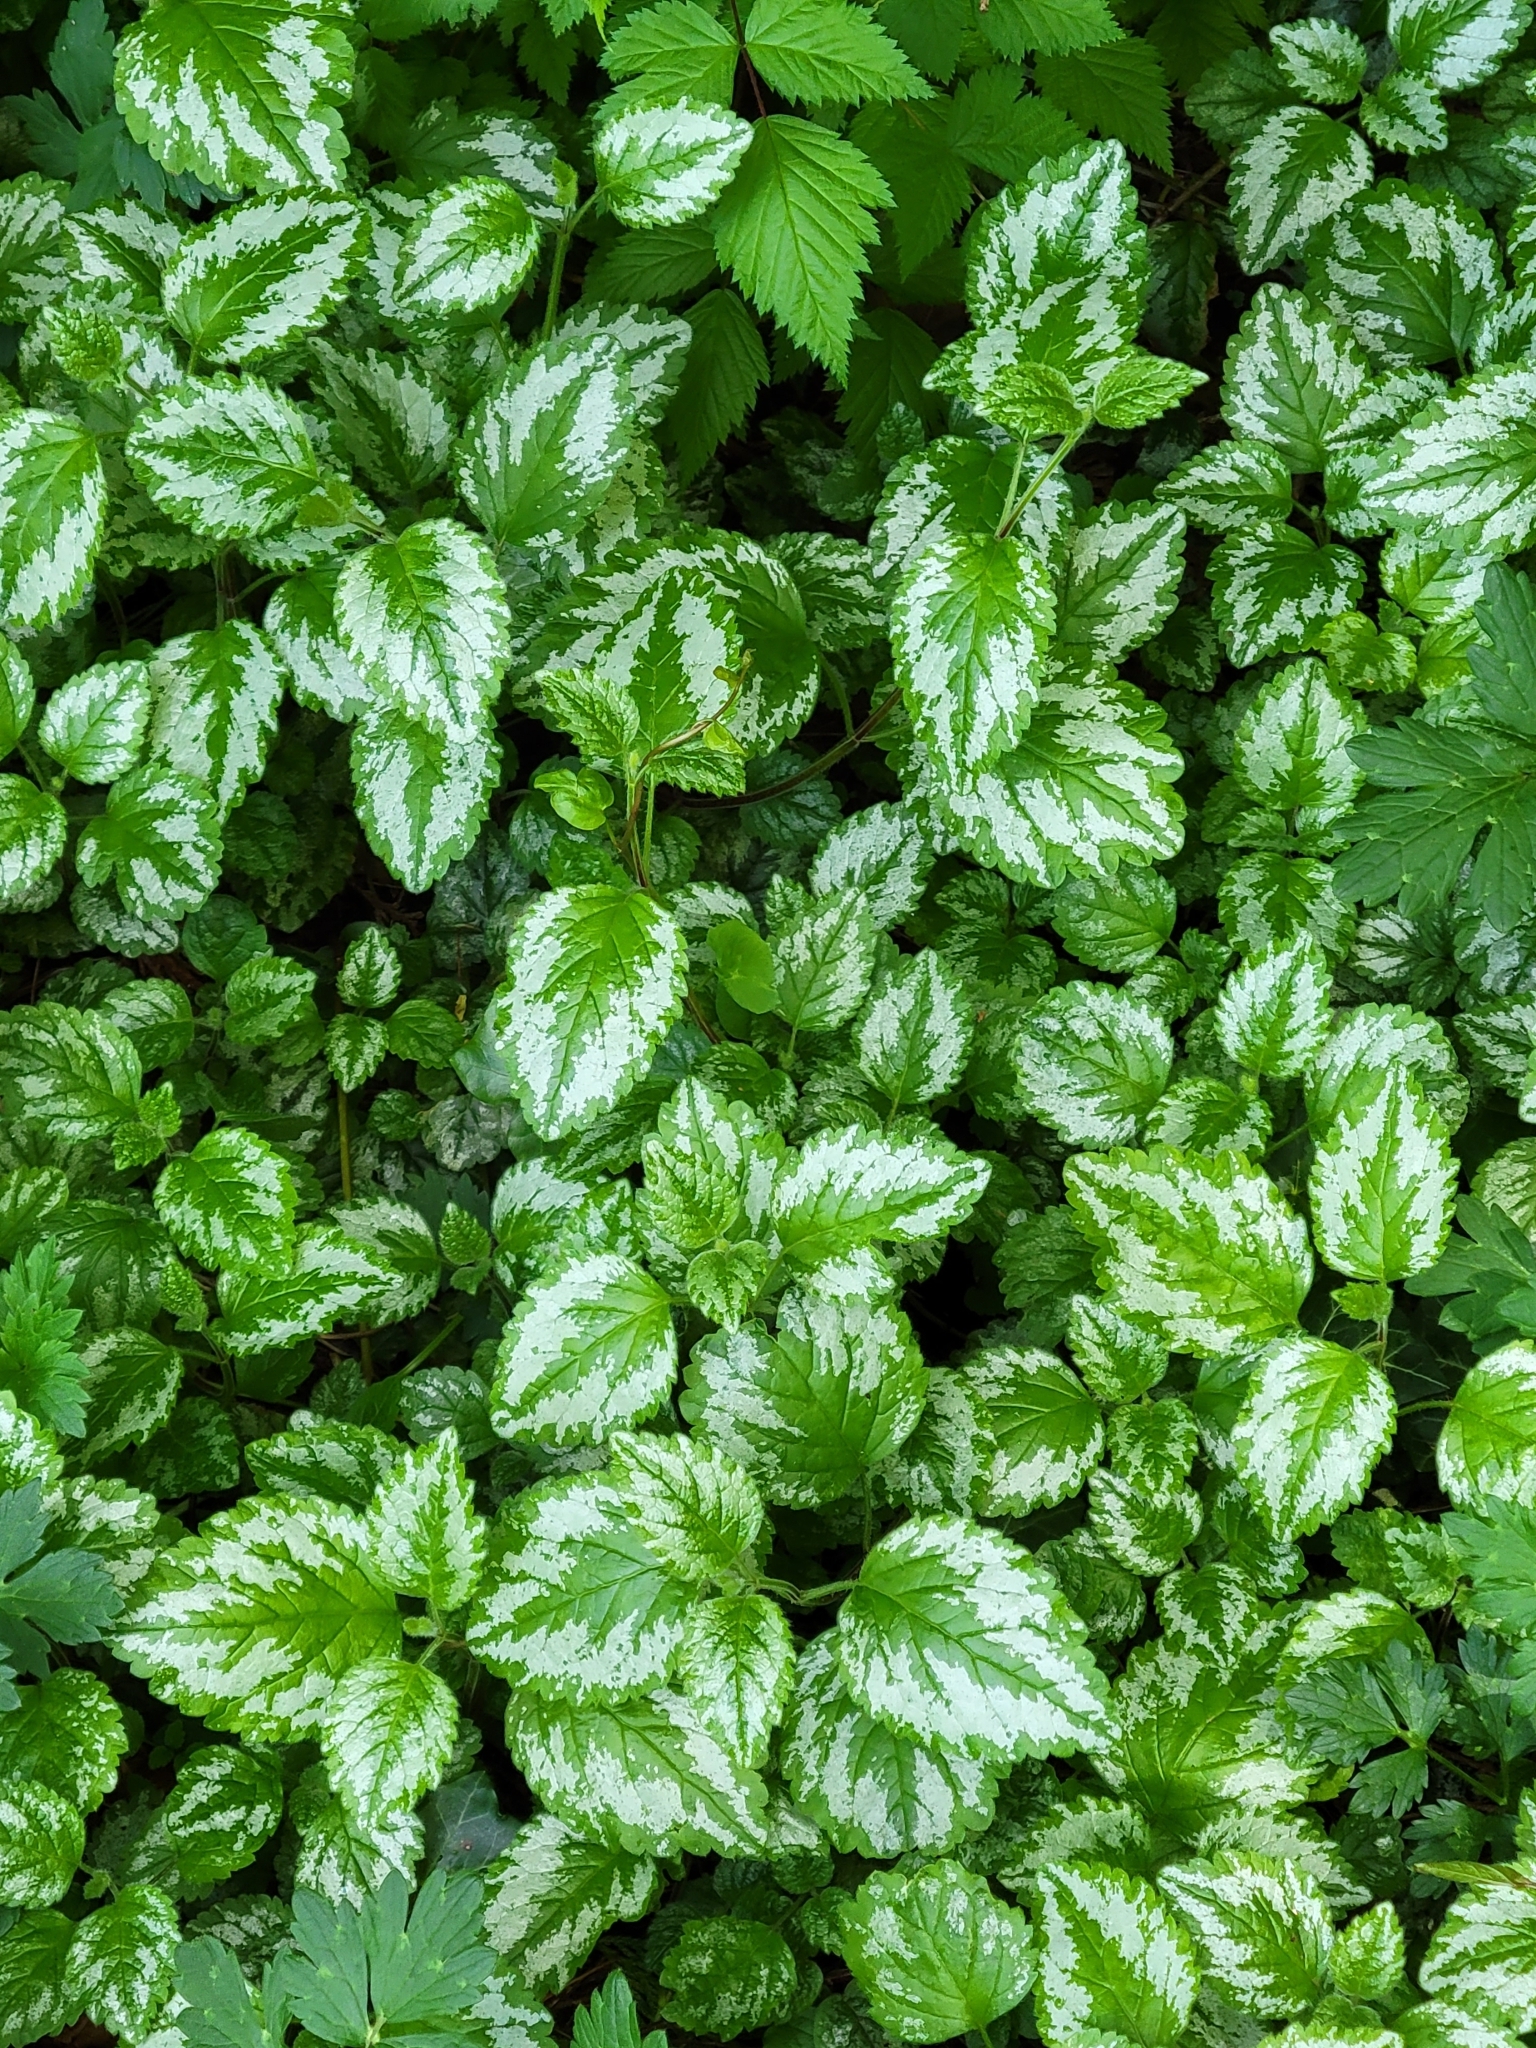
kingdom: Plantae
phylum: Tracheophyta
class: Magnoliopsida
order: Lamiales
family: Lamiaceae
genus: Lamium
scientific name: Lamium galeobdolon
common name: Yellow archangel
